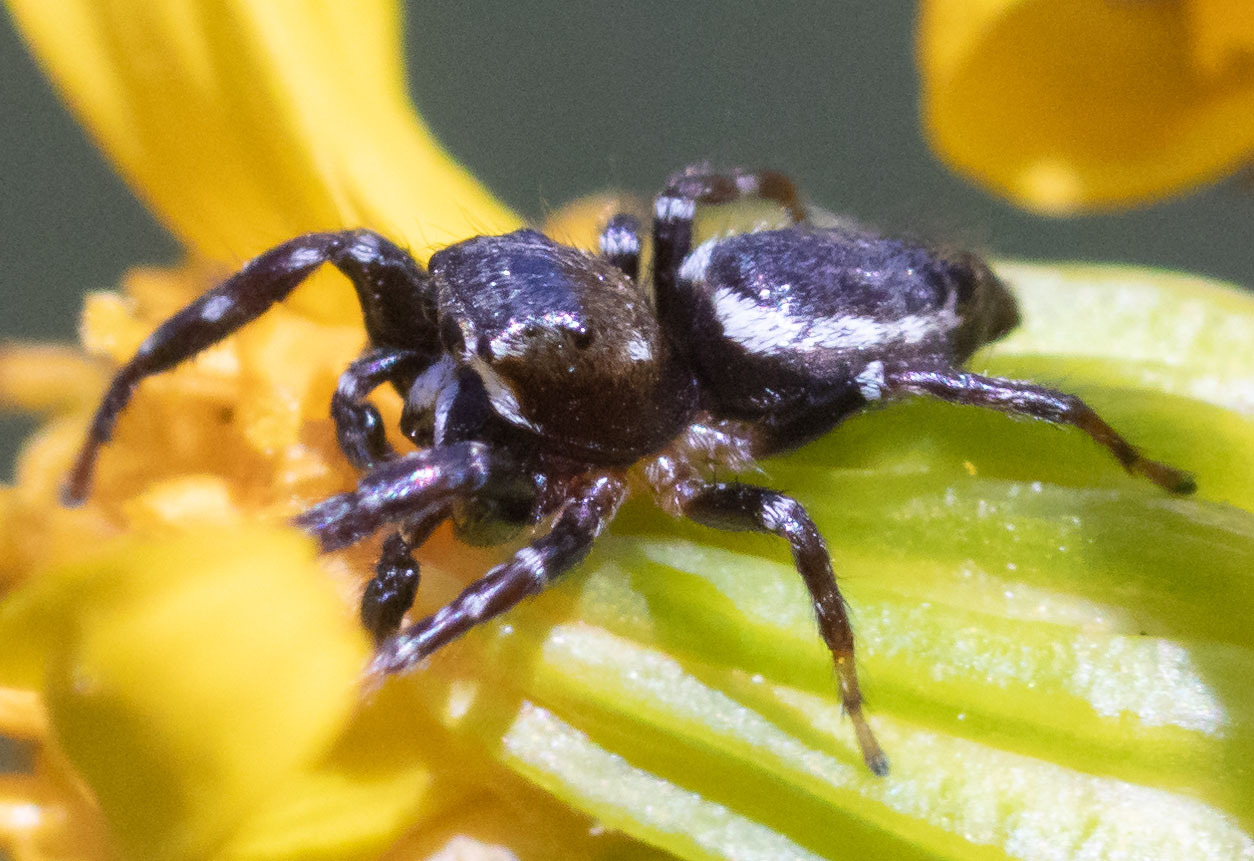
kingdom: Animalia
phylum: Arthropoda
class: Arachnida
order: Araneae
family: Salticidae
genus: Metaphidippus
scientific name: Metaphidippus manni
